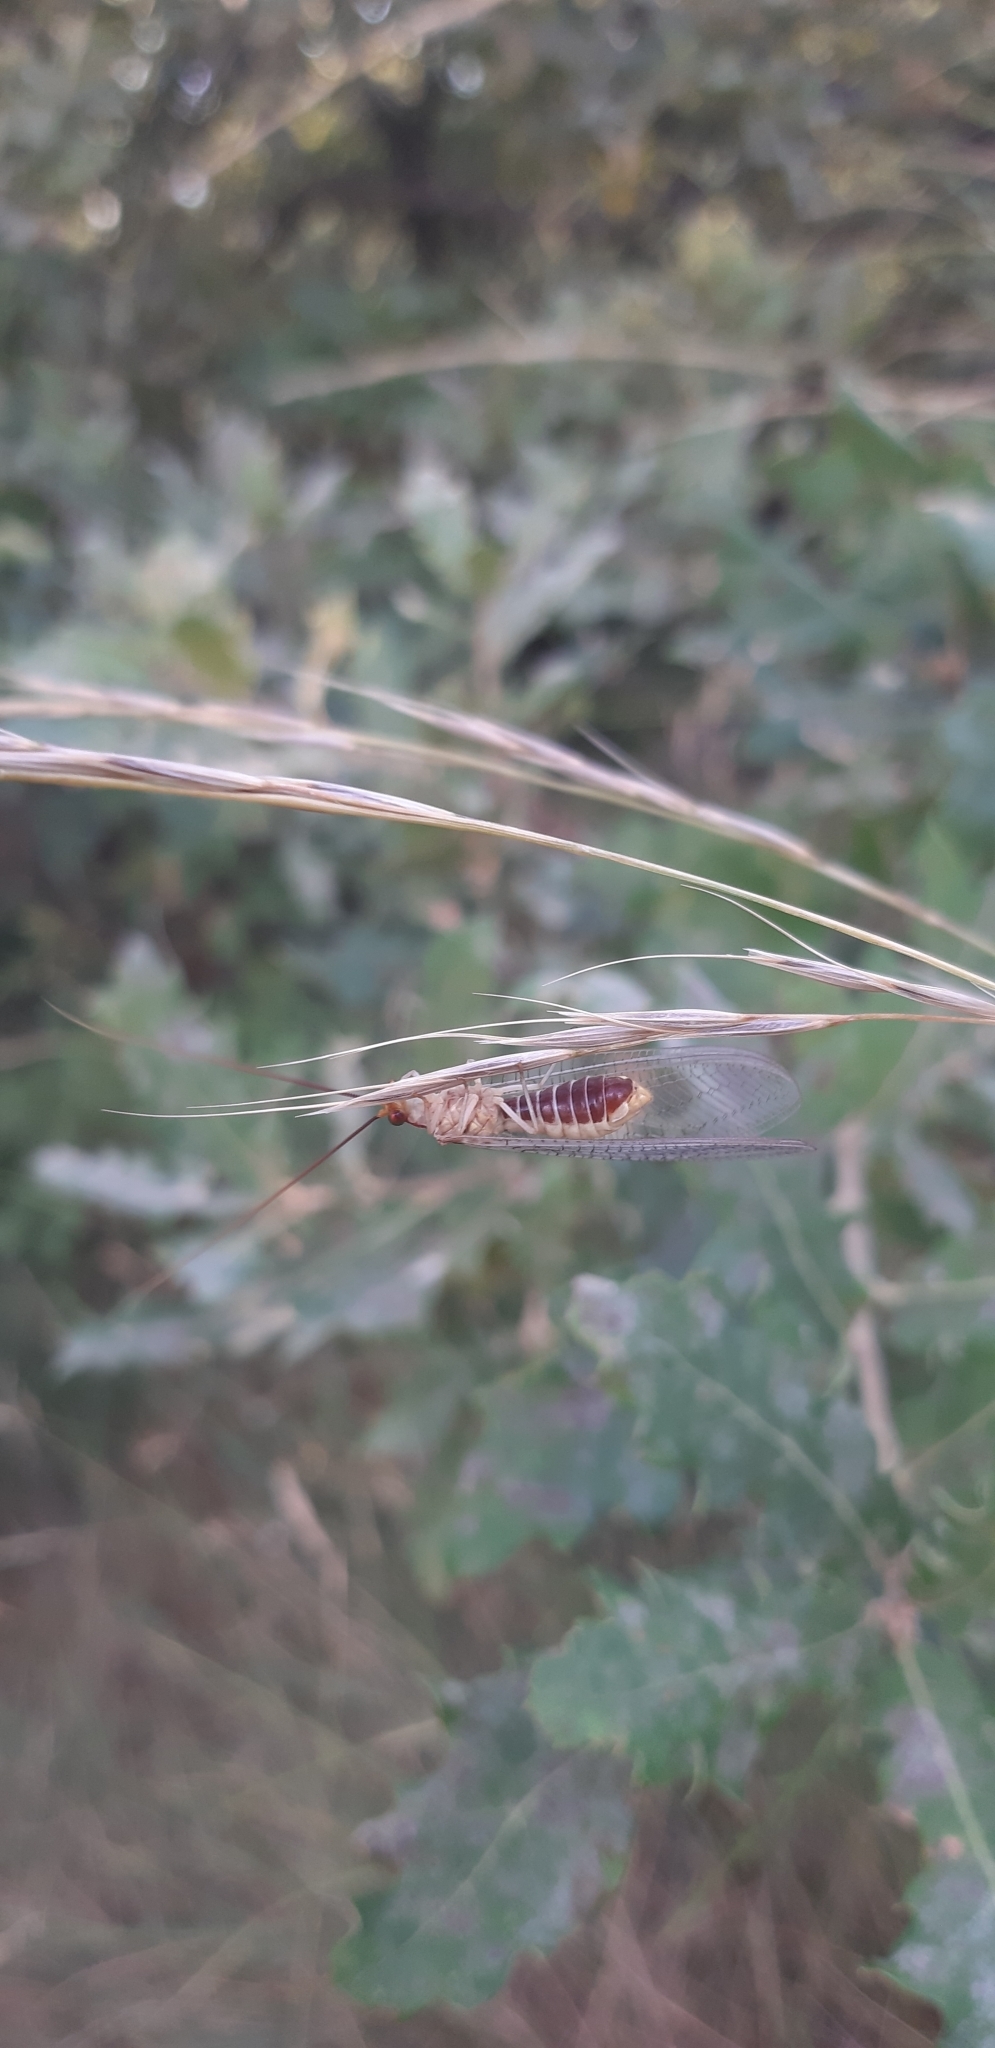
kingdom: Animalia
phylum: Arthropoda
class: Insecta
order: Neuroptera
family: Chrysopidae
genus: Italochrysa
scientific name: Italochrysa italica
